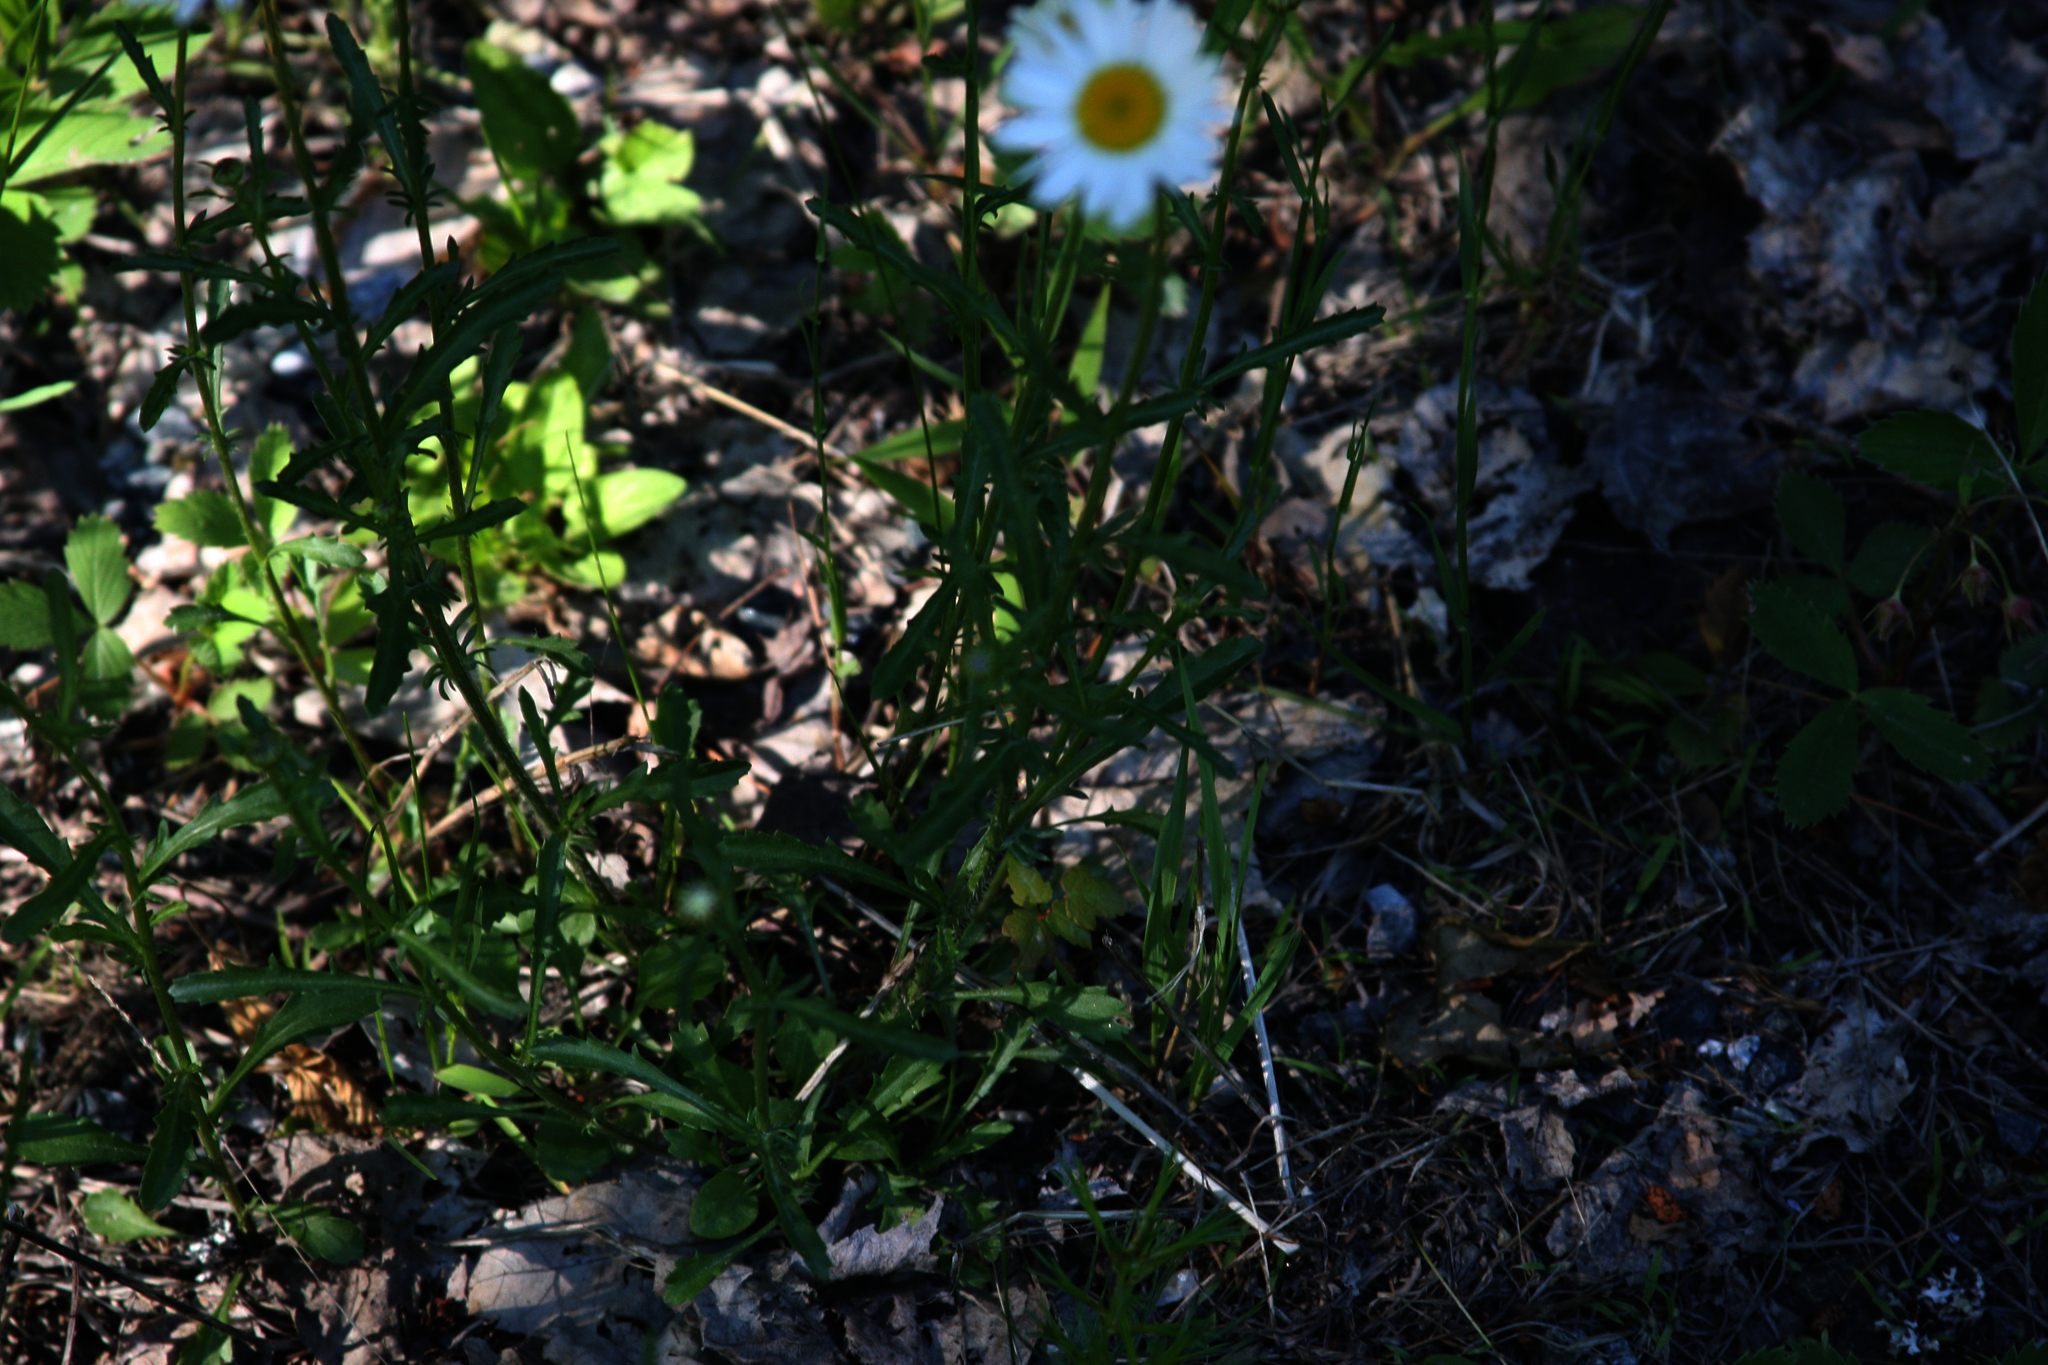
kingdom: Plantae
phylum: Tracheophyta
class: Magnoliopsida
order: Asterales
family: Asteraceae
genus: Leucanthemum
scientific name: Leucanthemum vulgare
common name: Oxeye daisy
